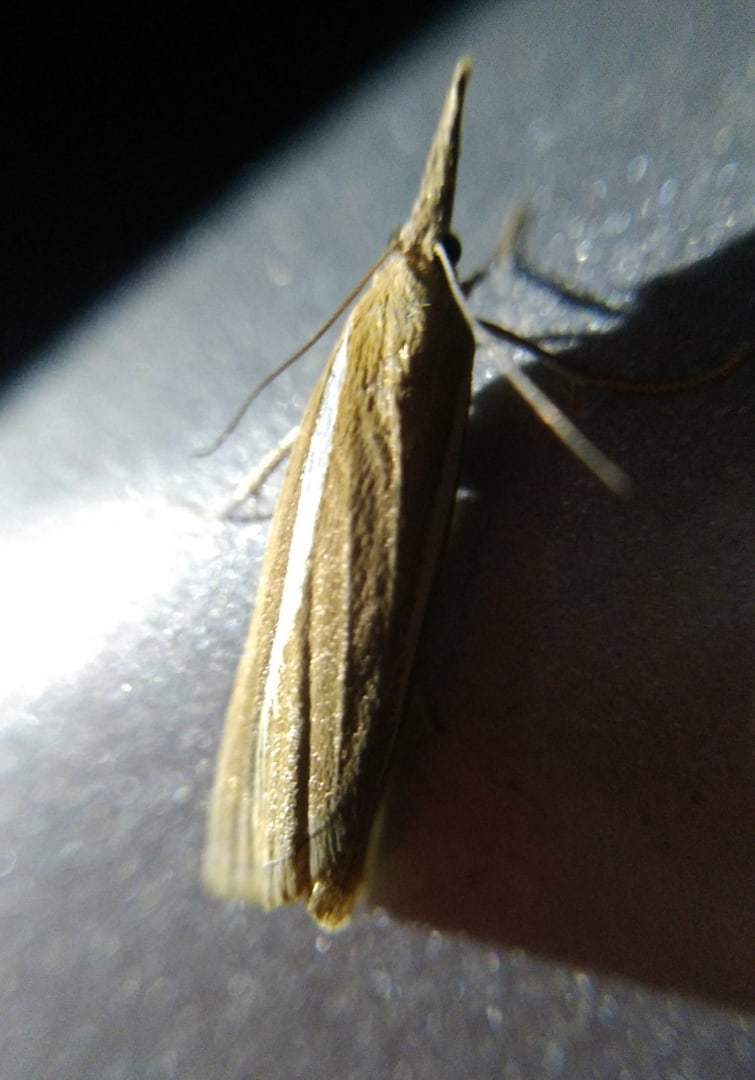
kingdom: Animalia
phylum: Arthropoda
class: Insecta
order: Lepidoptera
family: Crambidae
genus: Agriphila
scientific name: Agriphila tristellus
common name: Common grass-veneer
